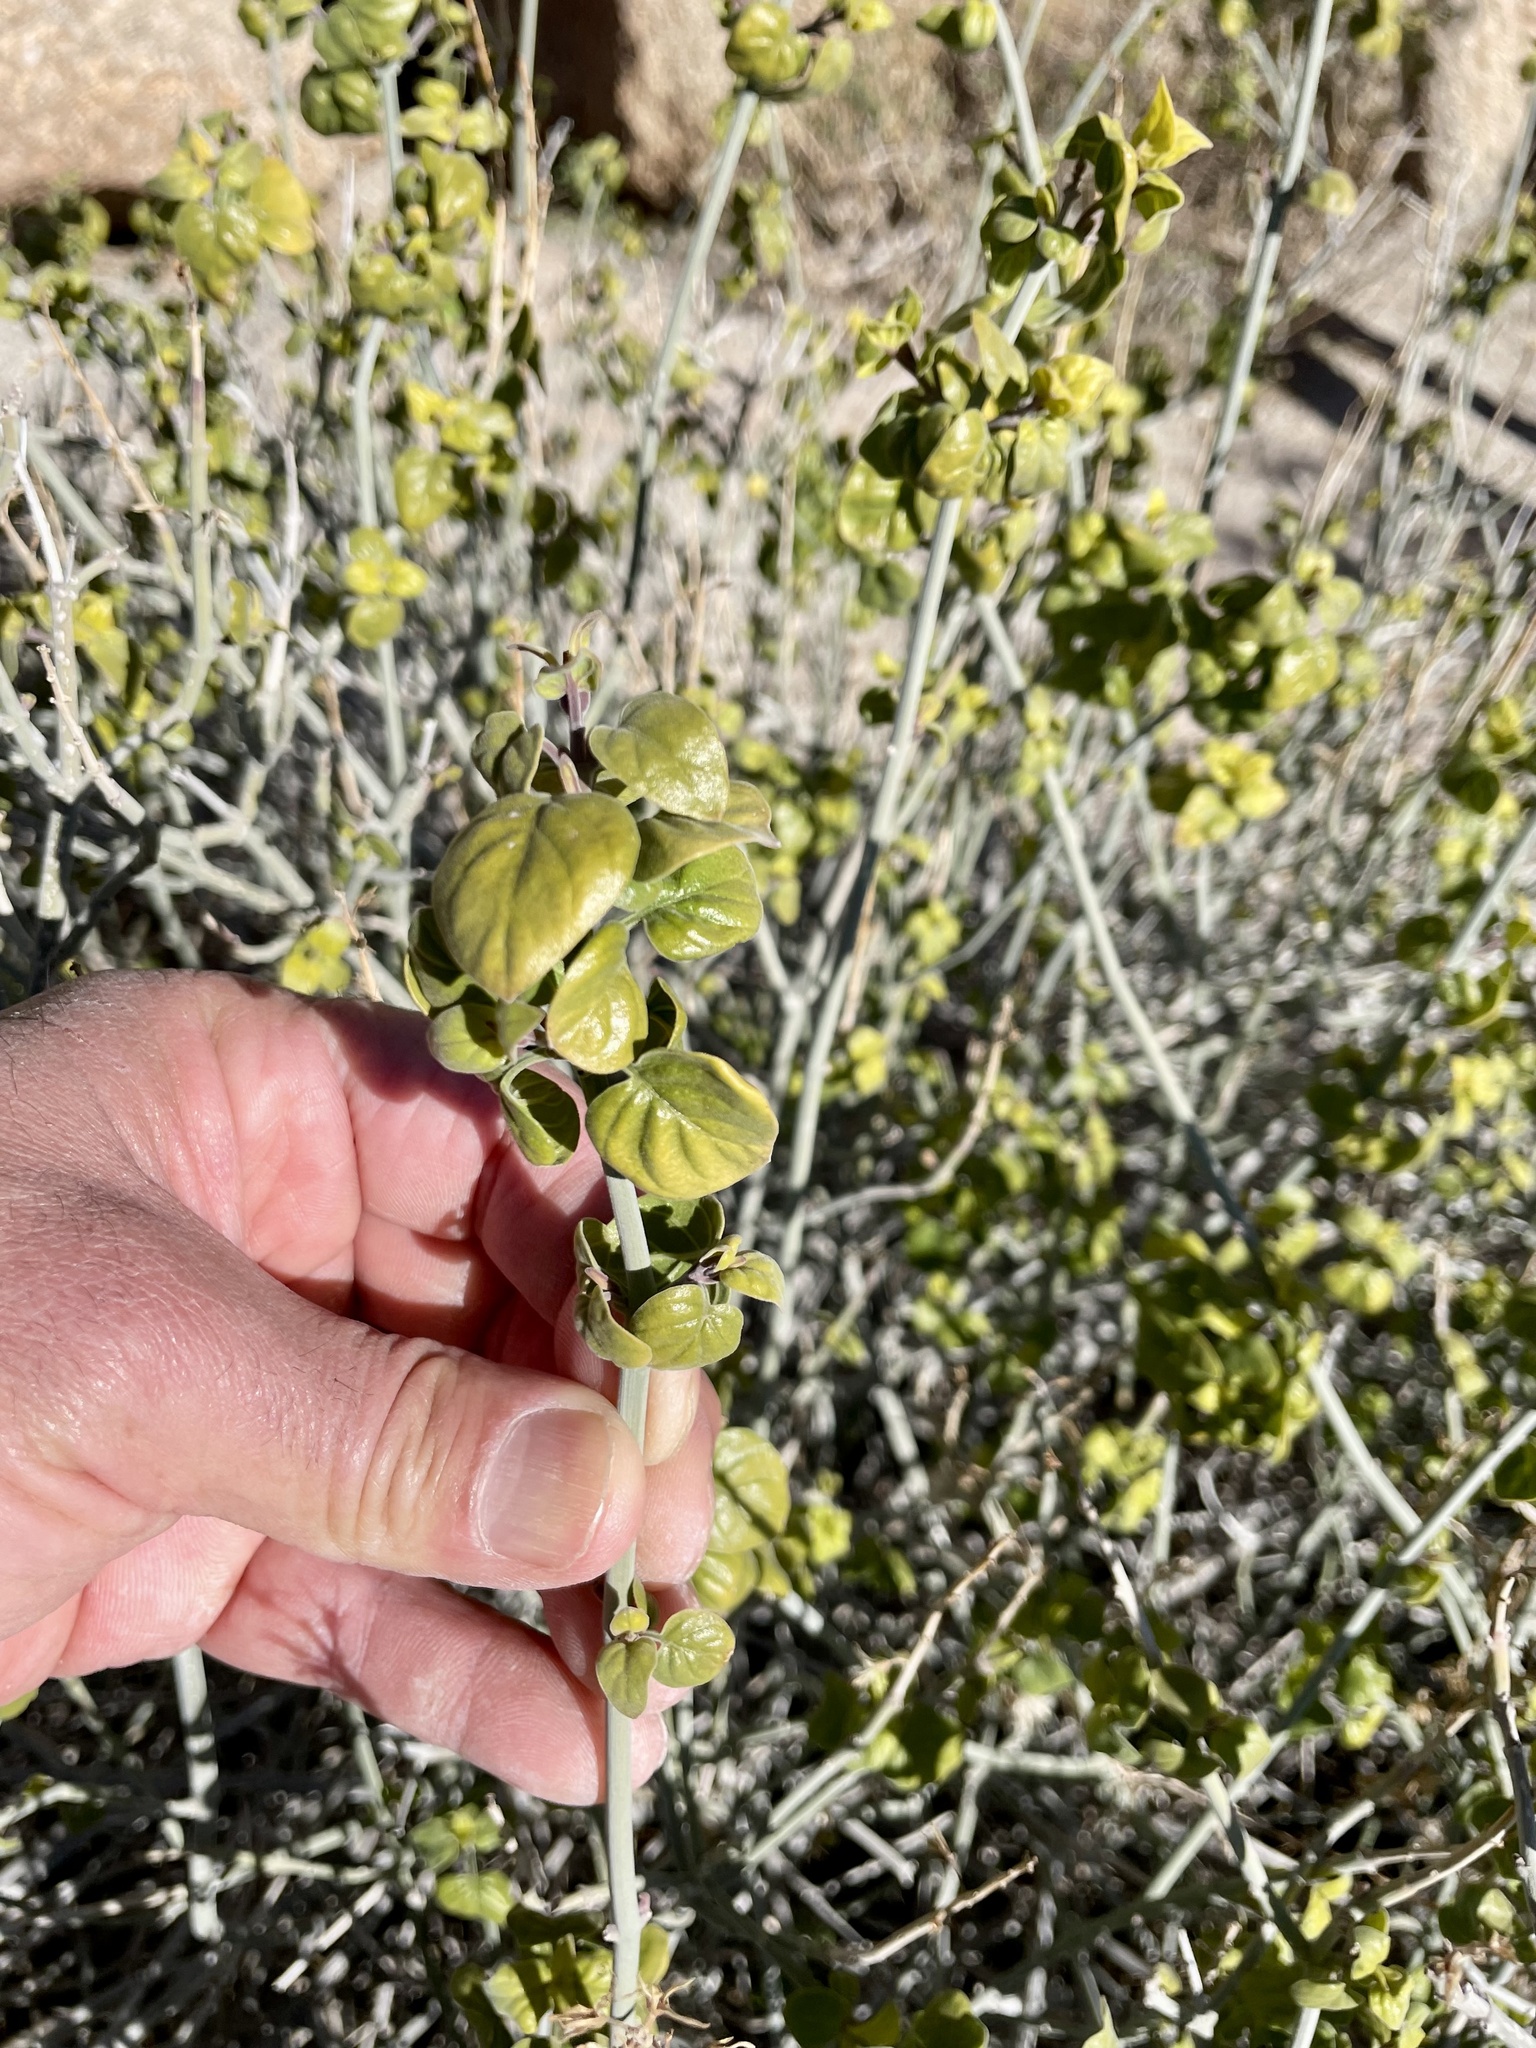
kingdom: Plantae
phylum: Tracheophyta
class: Magnoliopsida
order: Lamiales
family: Acanthaceae
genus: Justicia
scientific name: Justicia californica
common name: Chuparosa-honeysuckle
